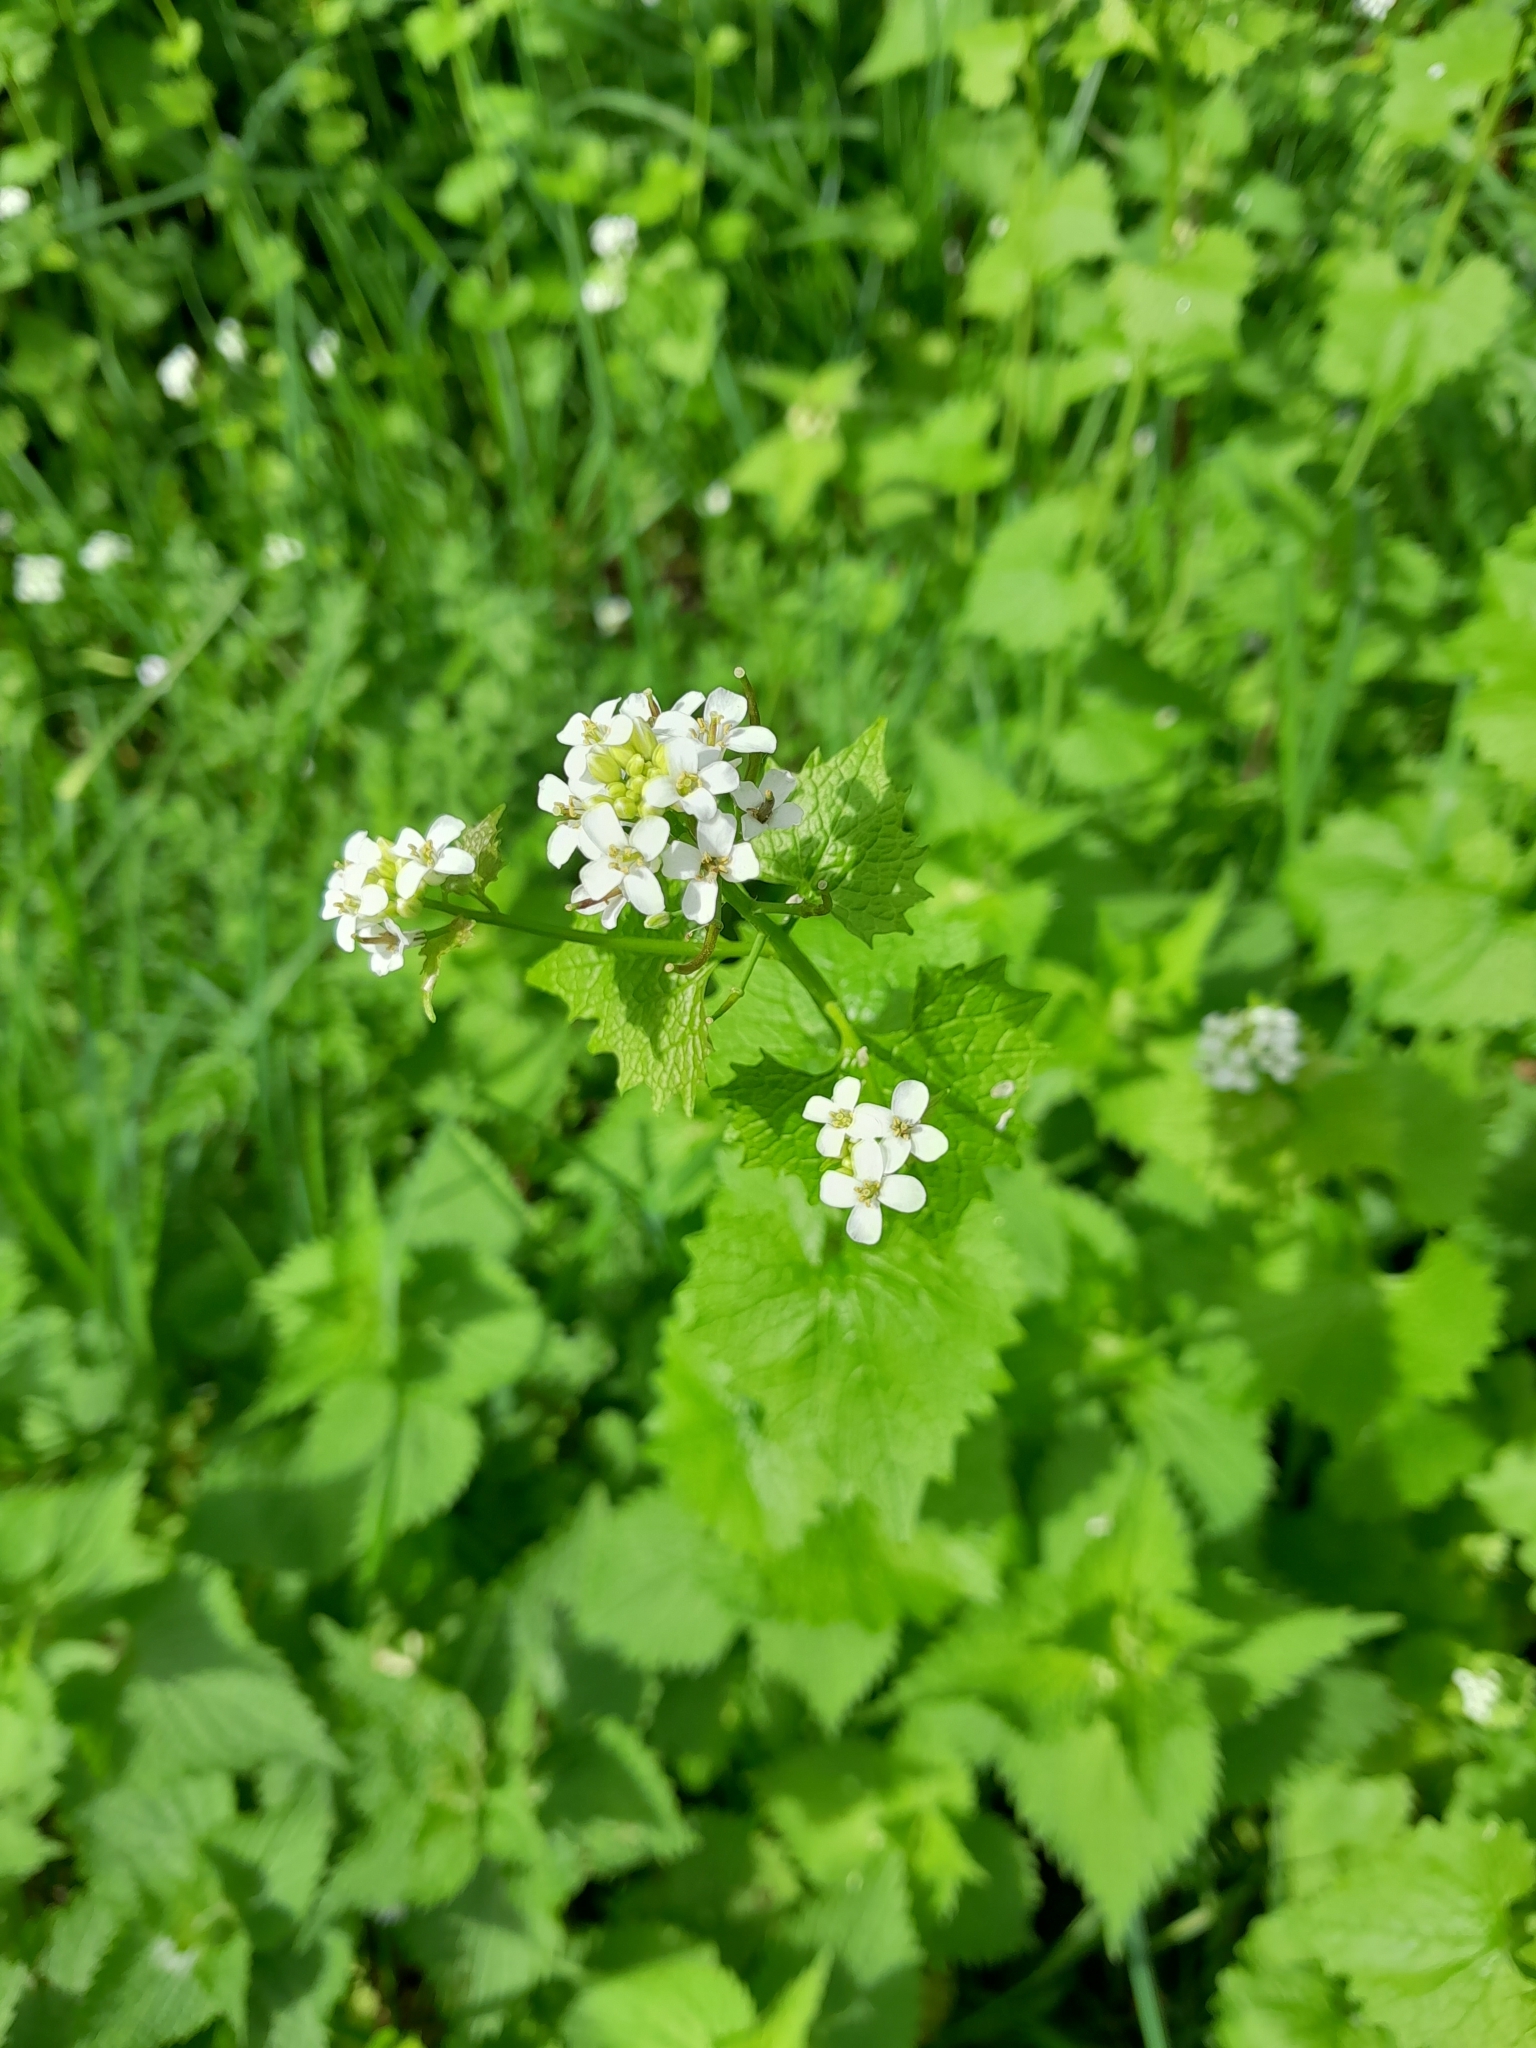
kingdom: Plantae
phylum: Tracheophyta
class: Magnoliopsida
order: Brassicales
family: Brassicaceae
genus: Alliaria
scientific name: Alliaria petiolata
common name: Garlic mustard
